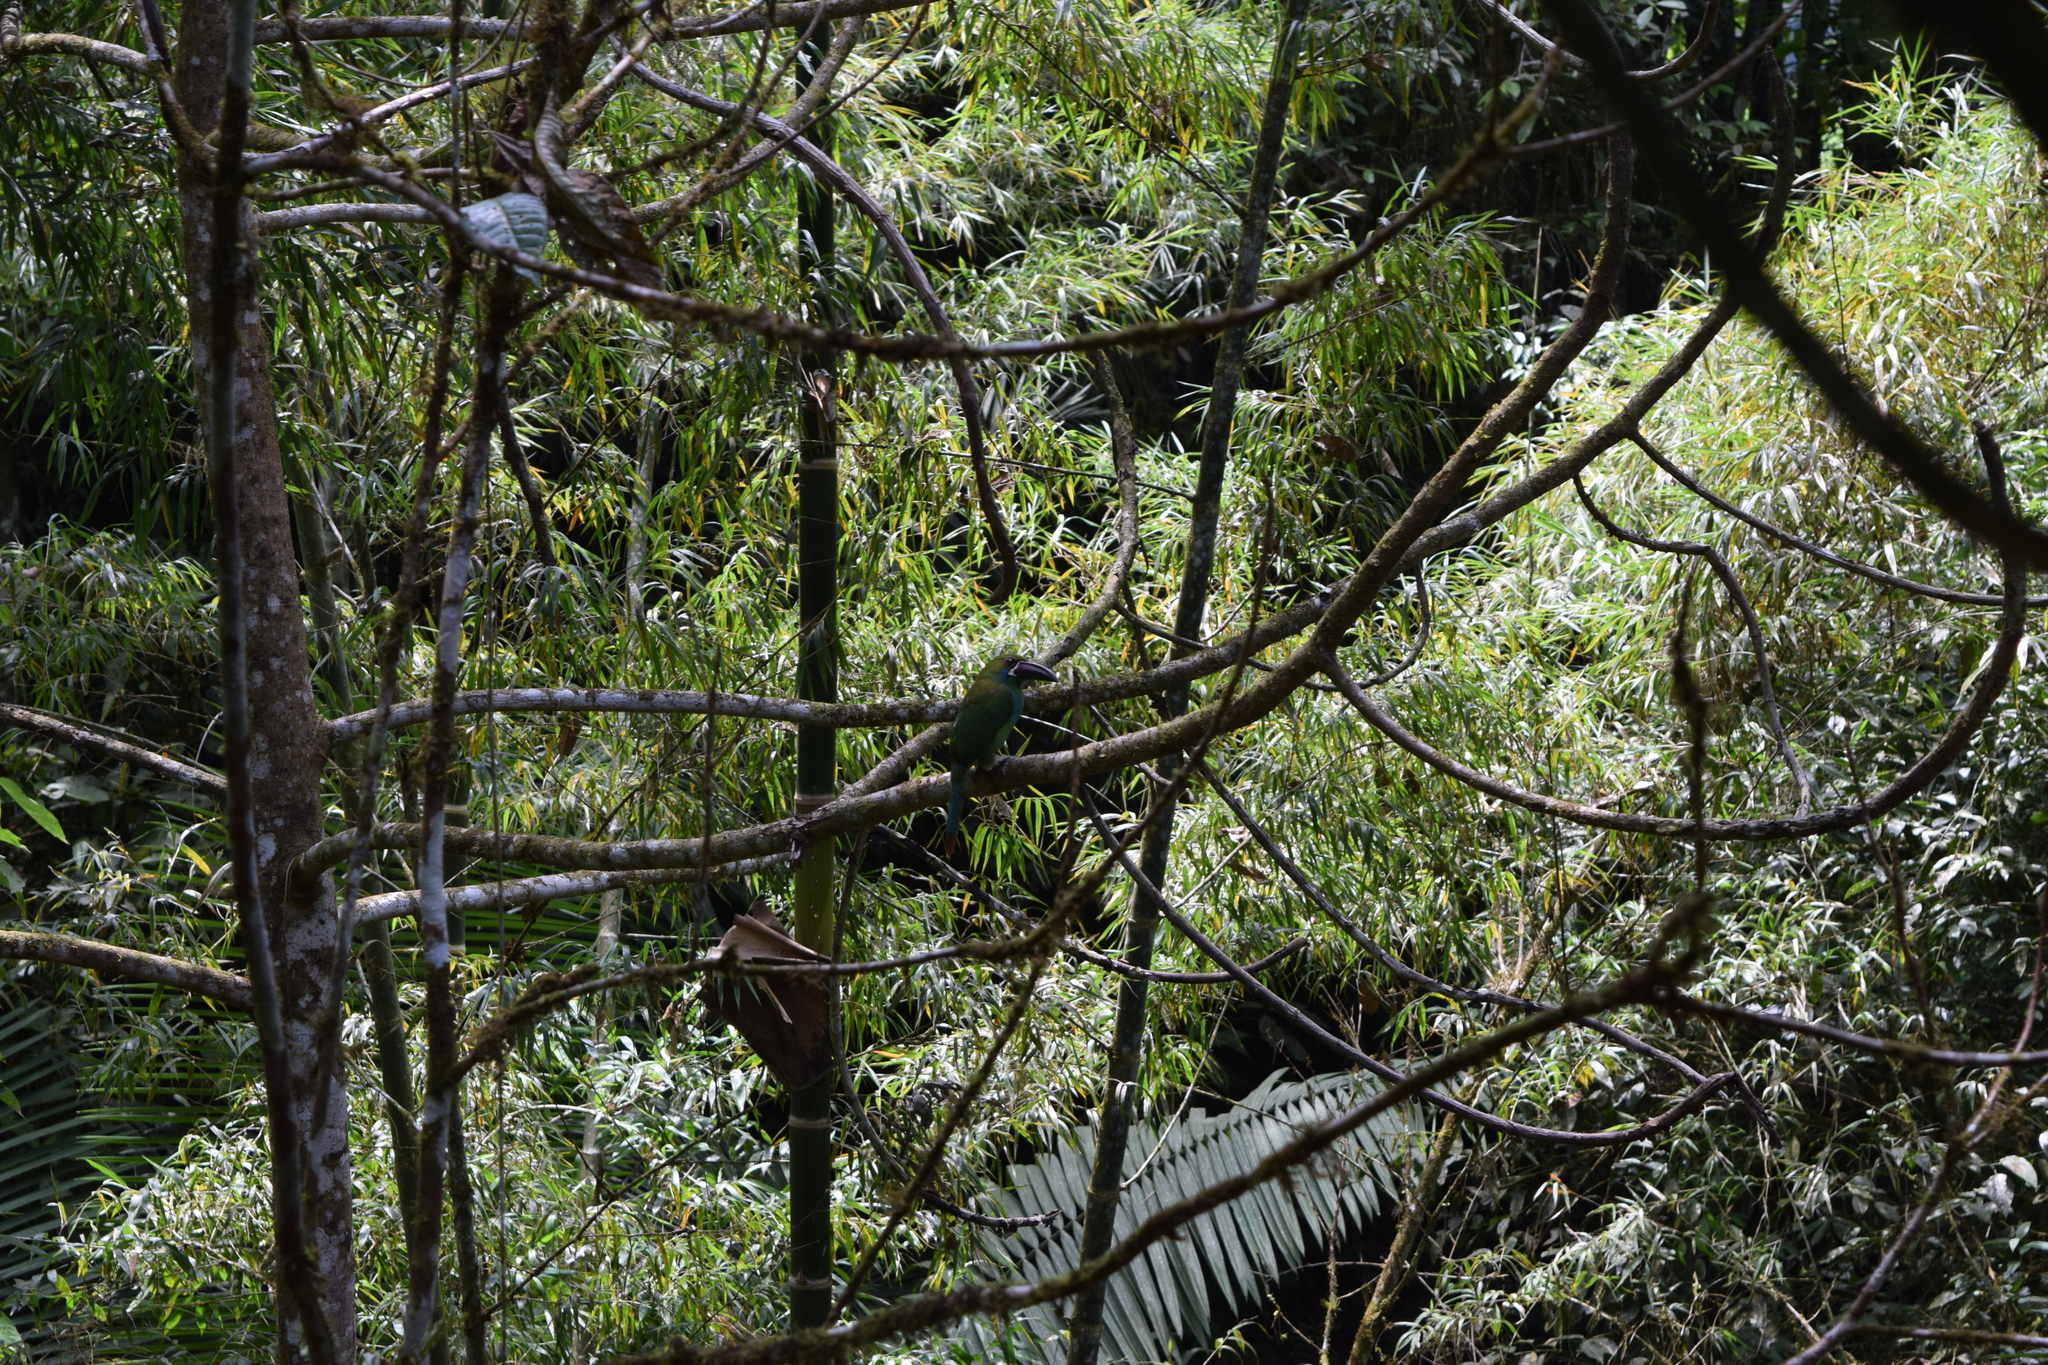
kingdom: Animalia
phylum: Chordata
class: Aves
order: Piciformes
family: Ramphastidae
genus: Aulacorhynchus
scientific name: Aulacorhynchus haematopygus
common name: Crimson-rumped toucanet
